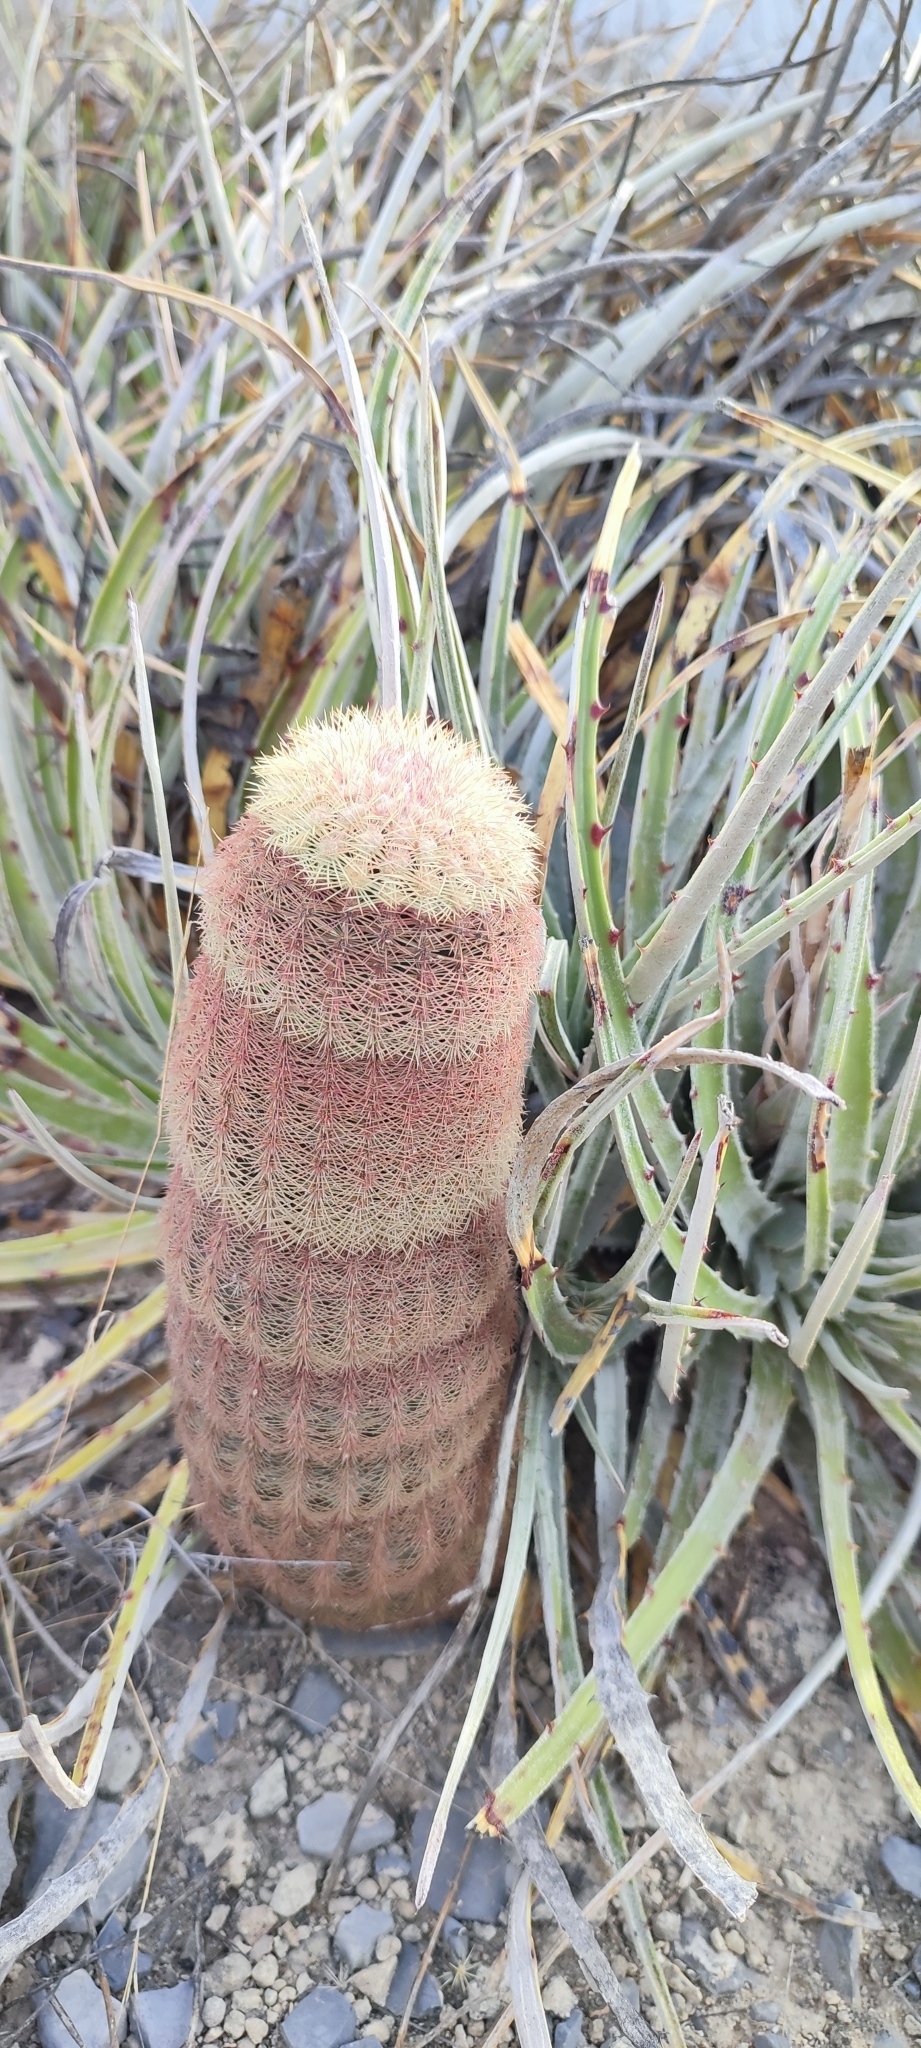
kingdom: Plantae
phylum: Tracheophyta
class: Magnoliopsida
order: Caryophyllales
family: Cactaceae
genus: Echinocereus
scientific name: Echinocereus pectinatus
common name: Rainbow cactus
